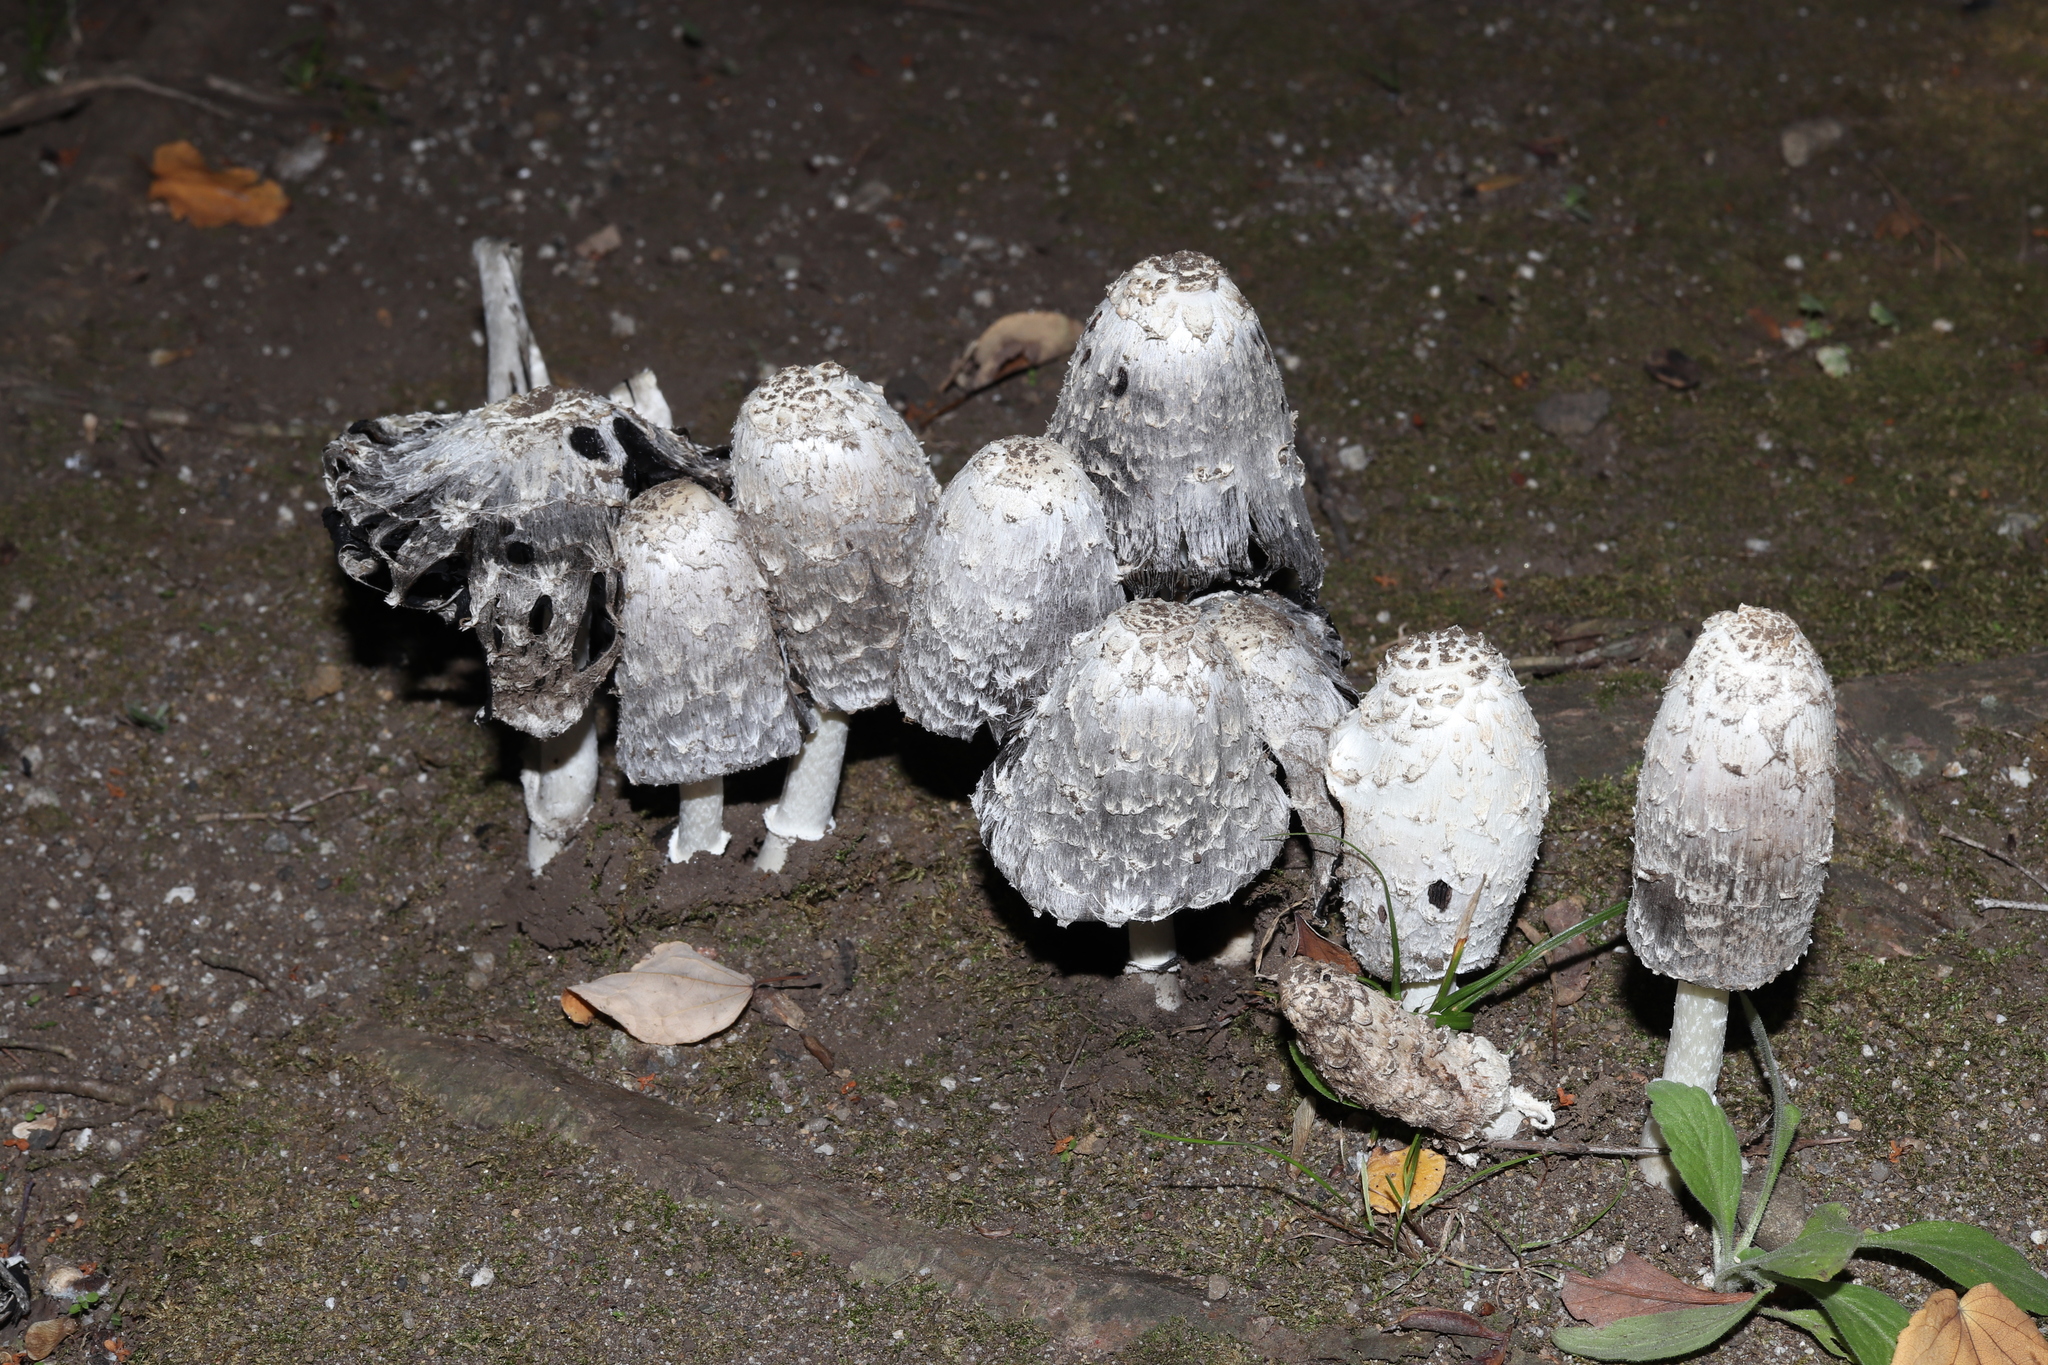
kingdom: Fungi
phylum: Basidiomycota
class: Agaricomycetes
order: Agaricales
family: Agaricaceae
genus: Coprinus
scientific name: Coprinus comatus
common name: Lawyer's wig
